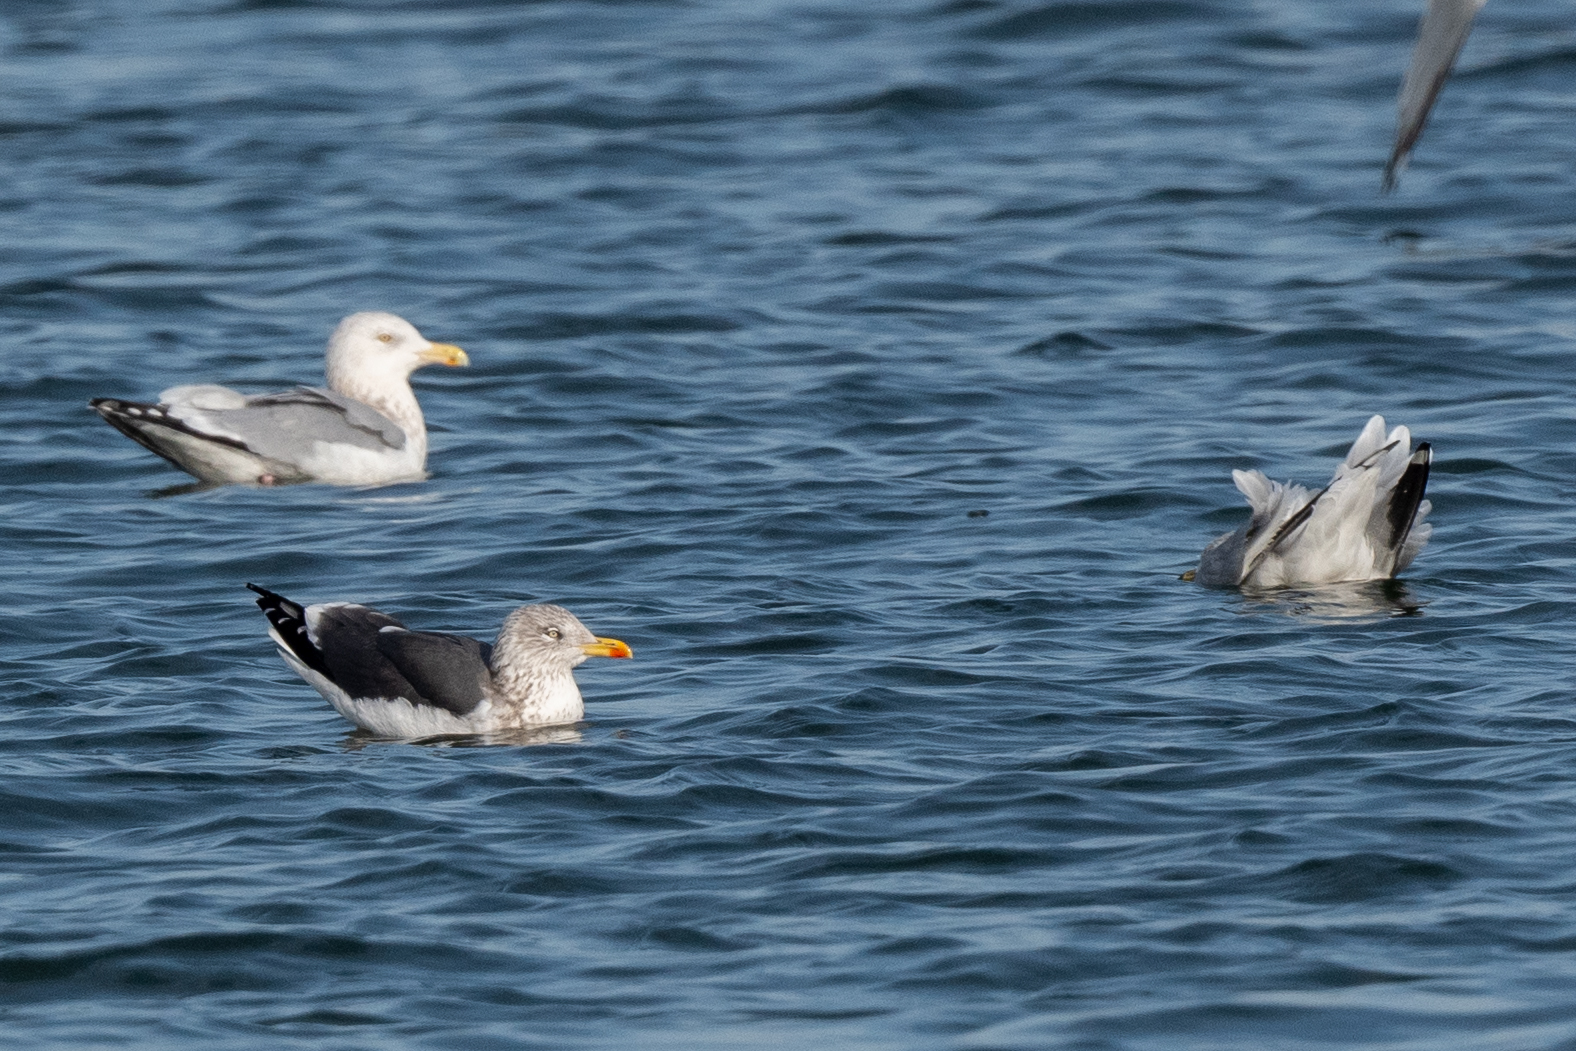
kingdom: Animalia
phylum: Chordata
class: Aves
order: Charadriiformes
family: Laridae
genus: Larus
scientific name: Larus fuscus
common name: Lesser black-backed gull
